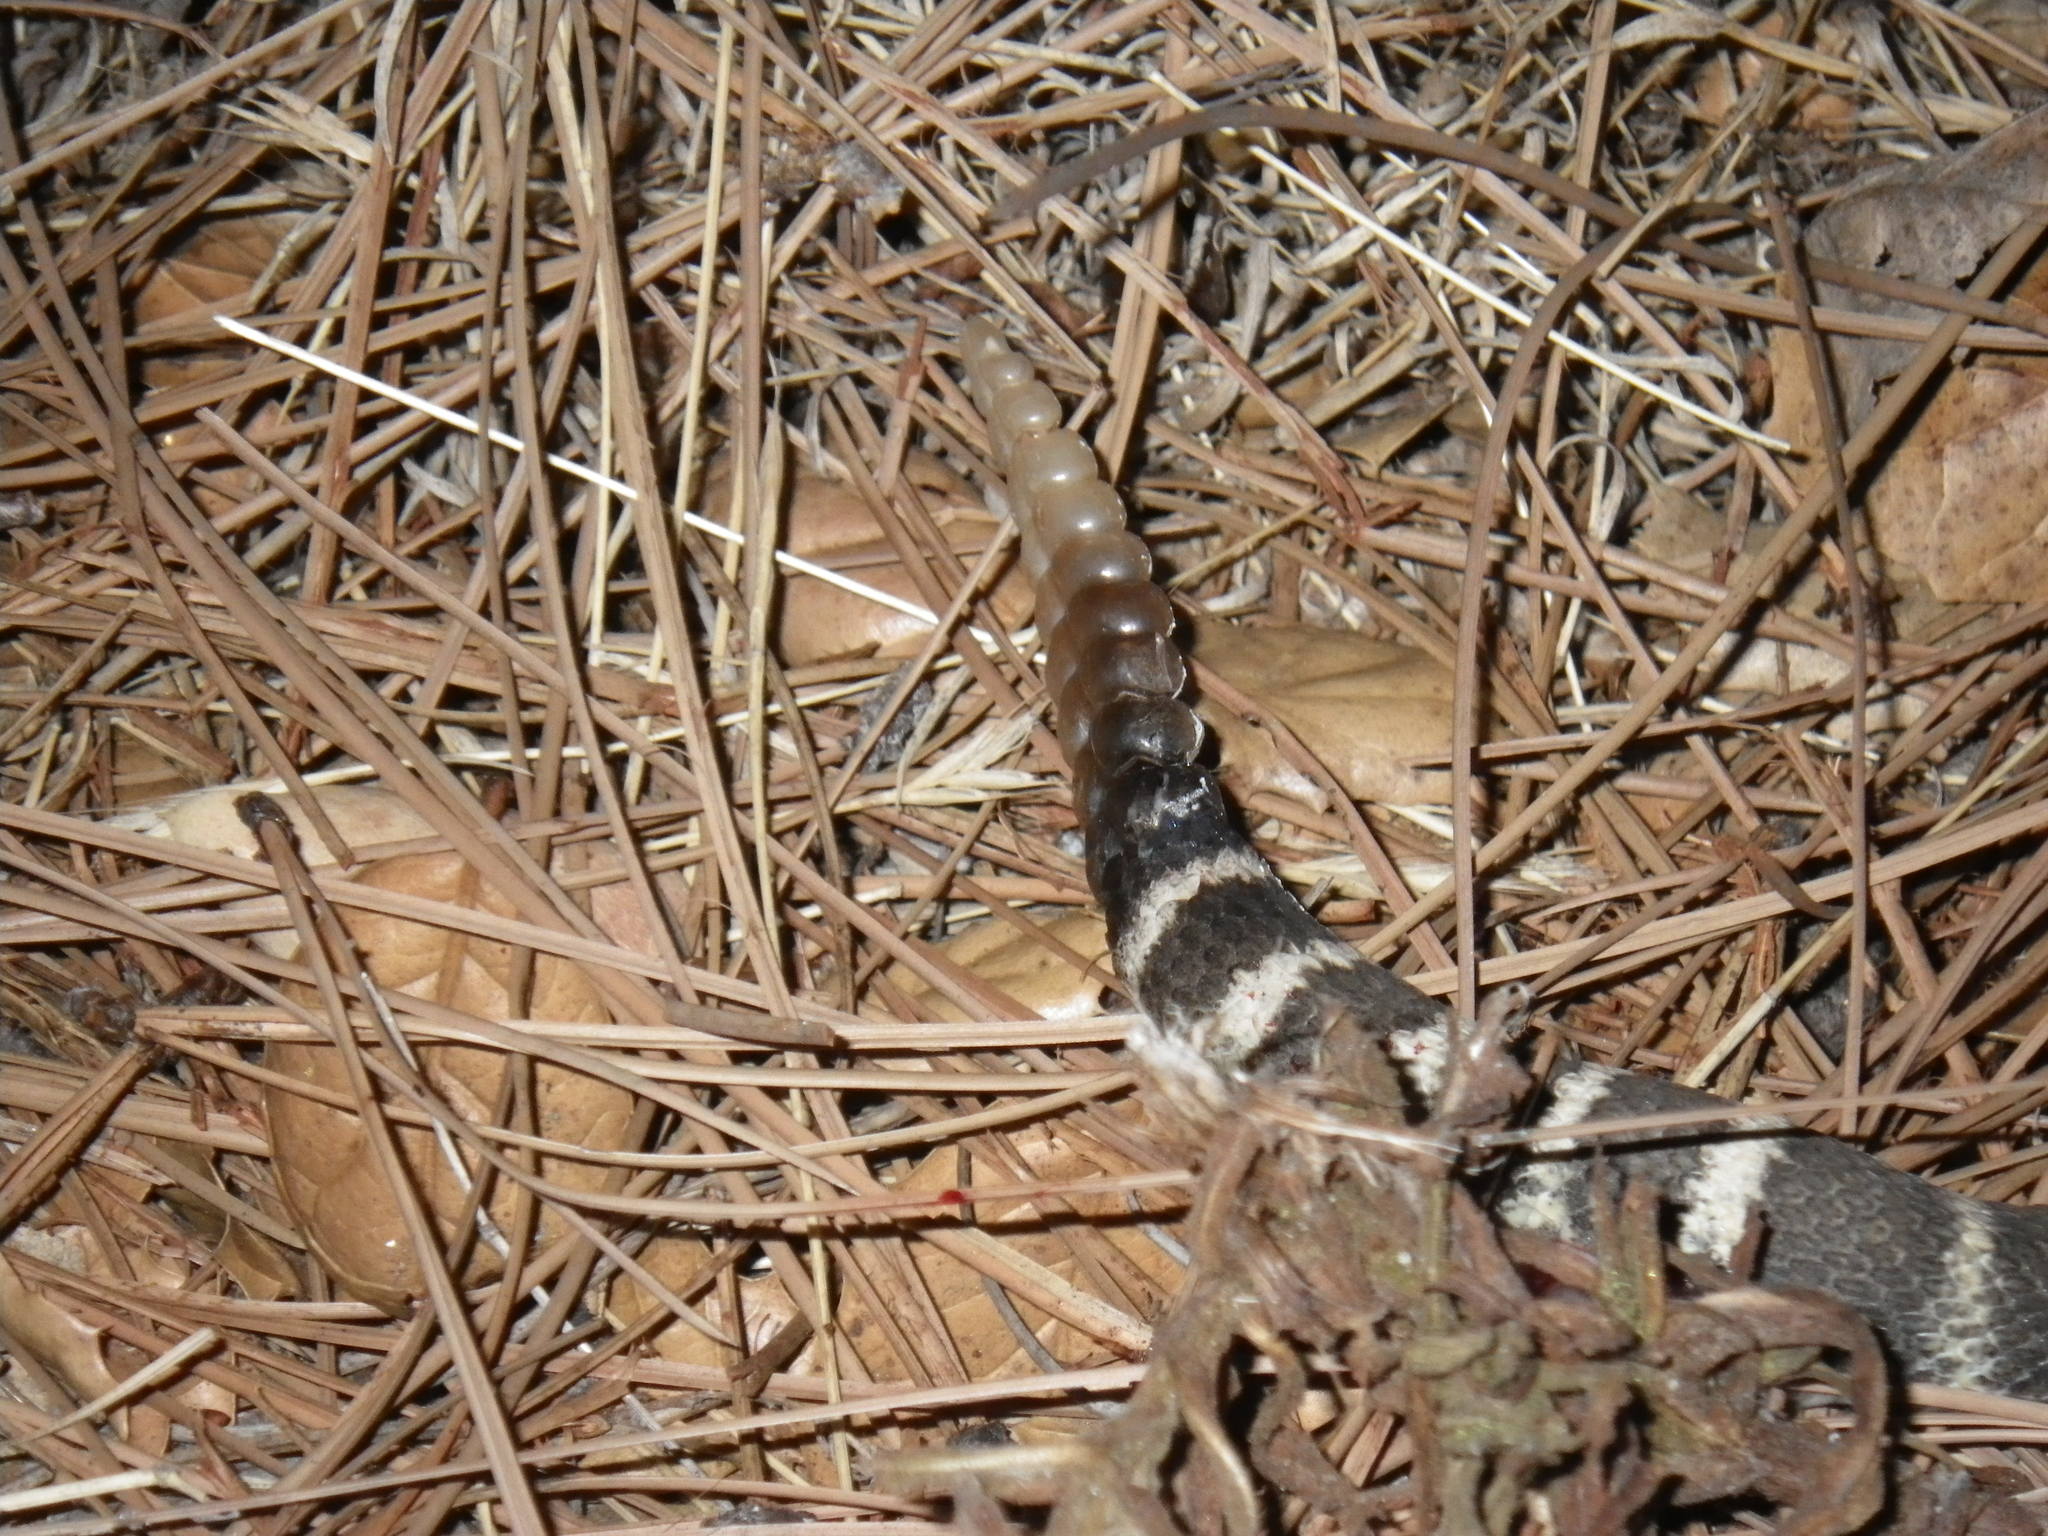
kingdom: Animalia
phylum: Chordata
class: Squamata
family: Viperidae
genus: Crotalus
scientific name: Crotalus oreganus
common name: Abyssus
